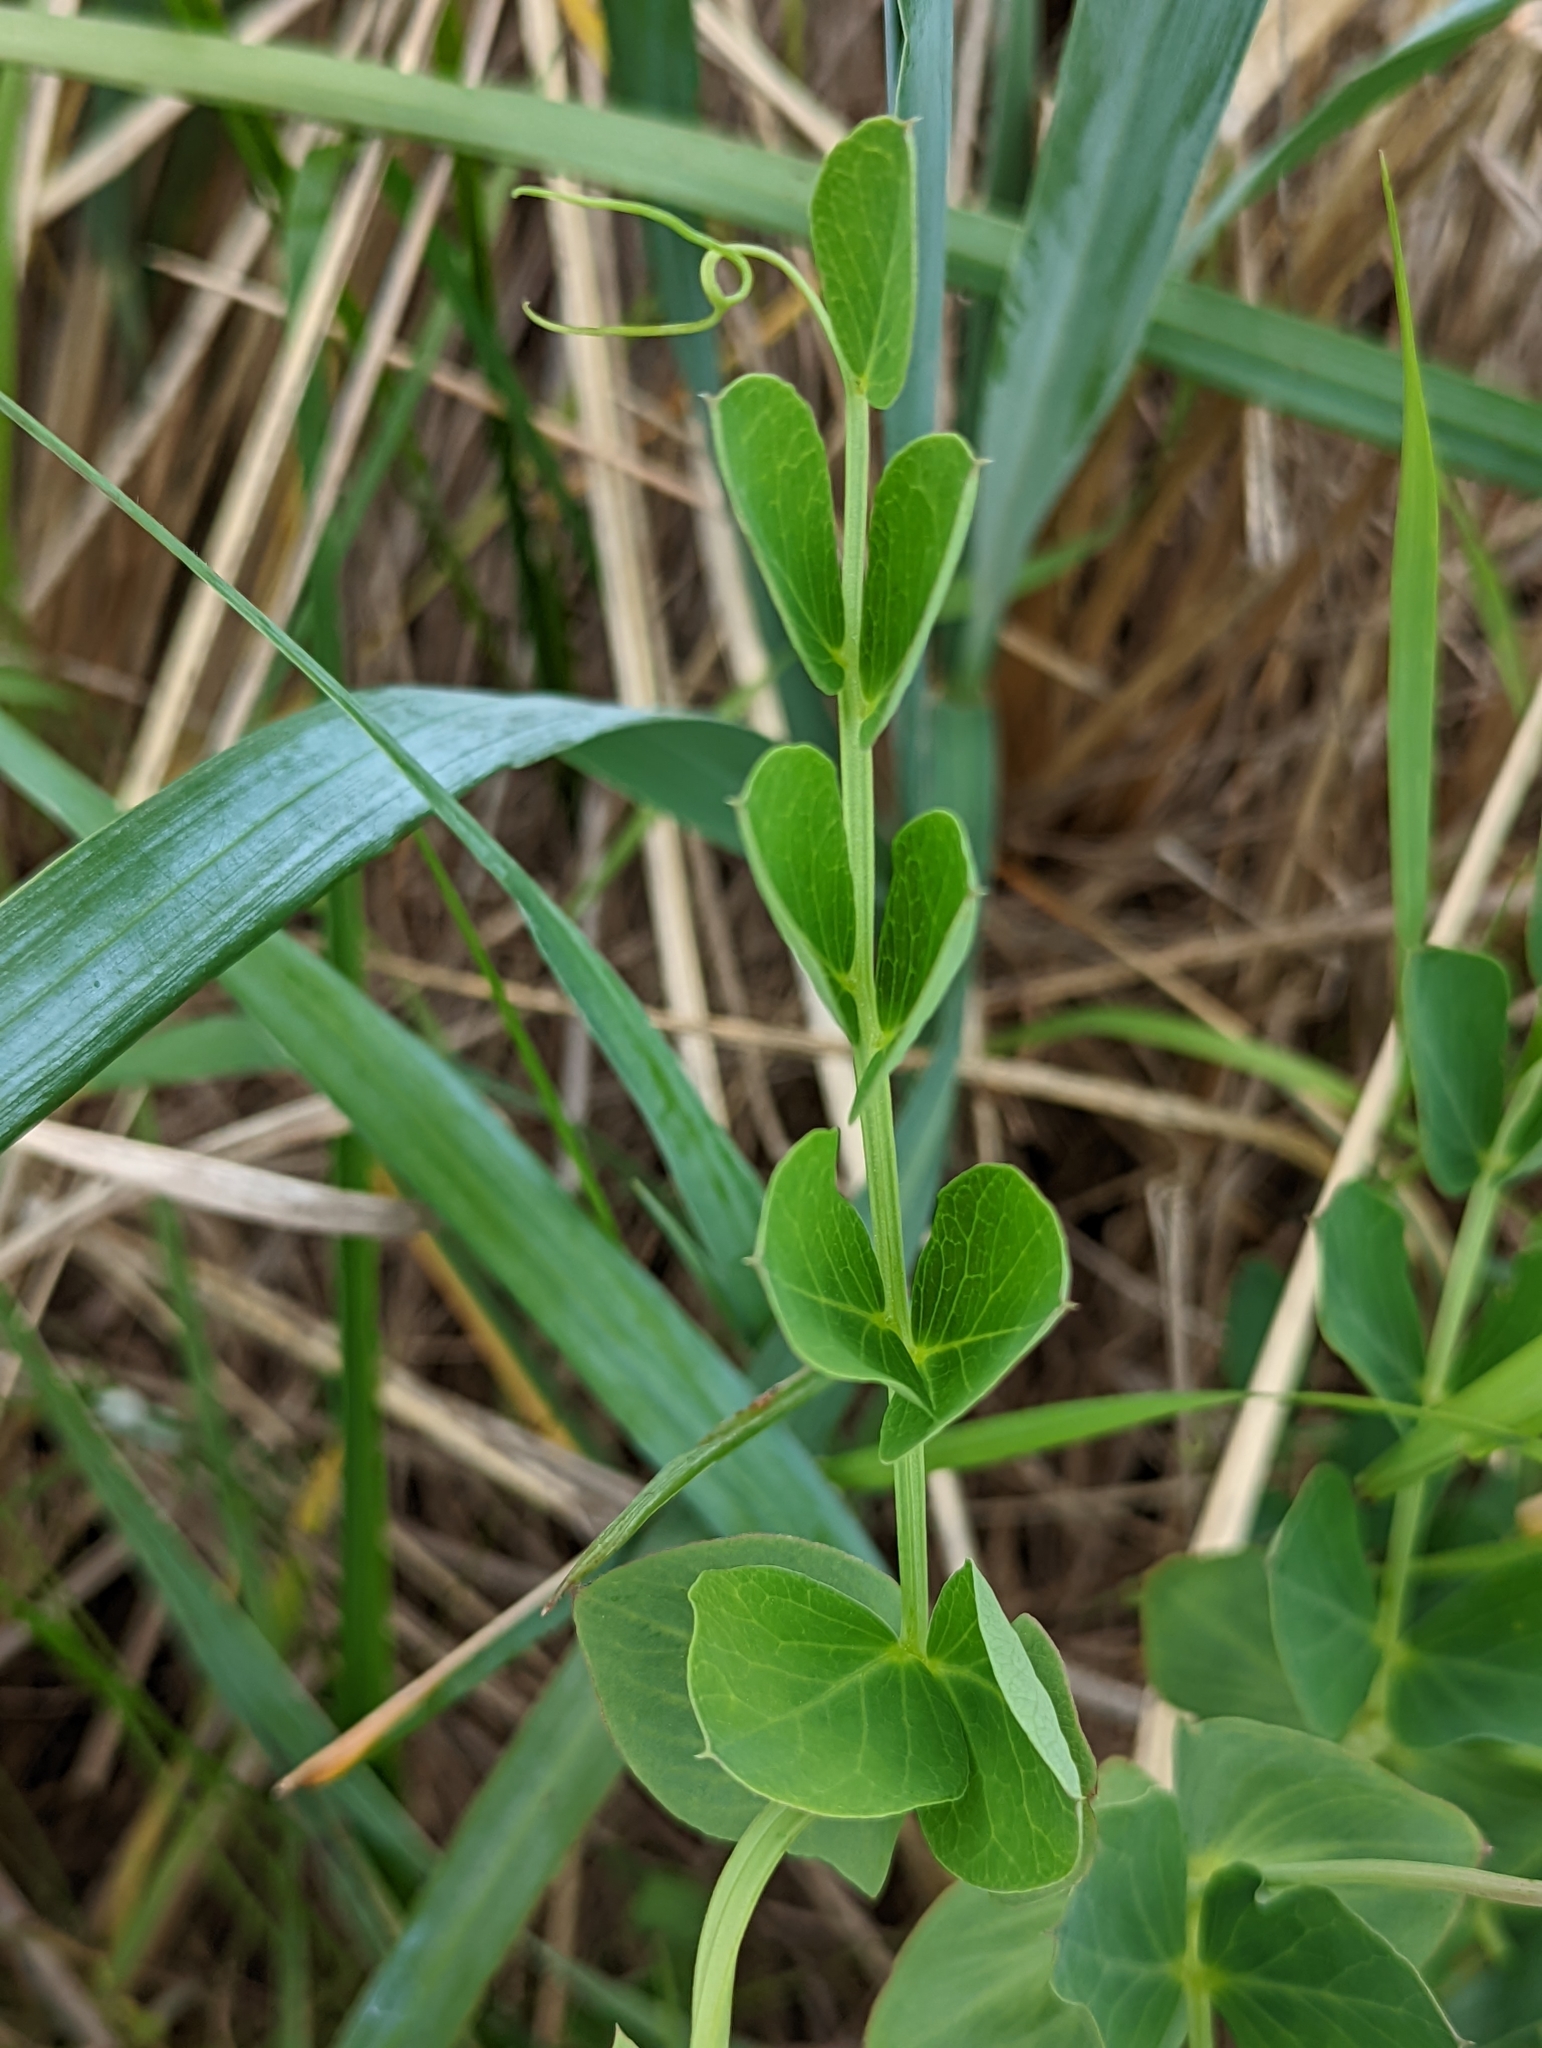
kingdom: Plantae
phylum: Tracheophyta
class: Magnoliopsida
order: Fabales
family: Fabaceae
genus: Lathyrus
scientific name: Lathyrus japonicus
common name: Sea pea
